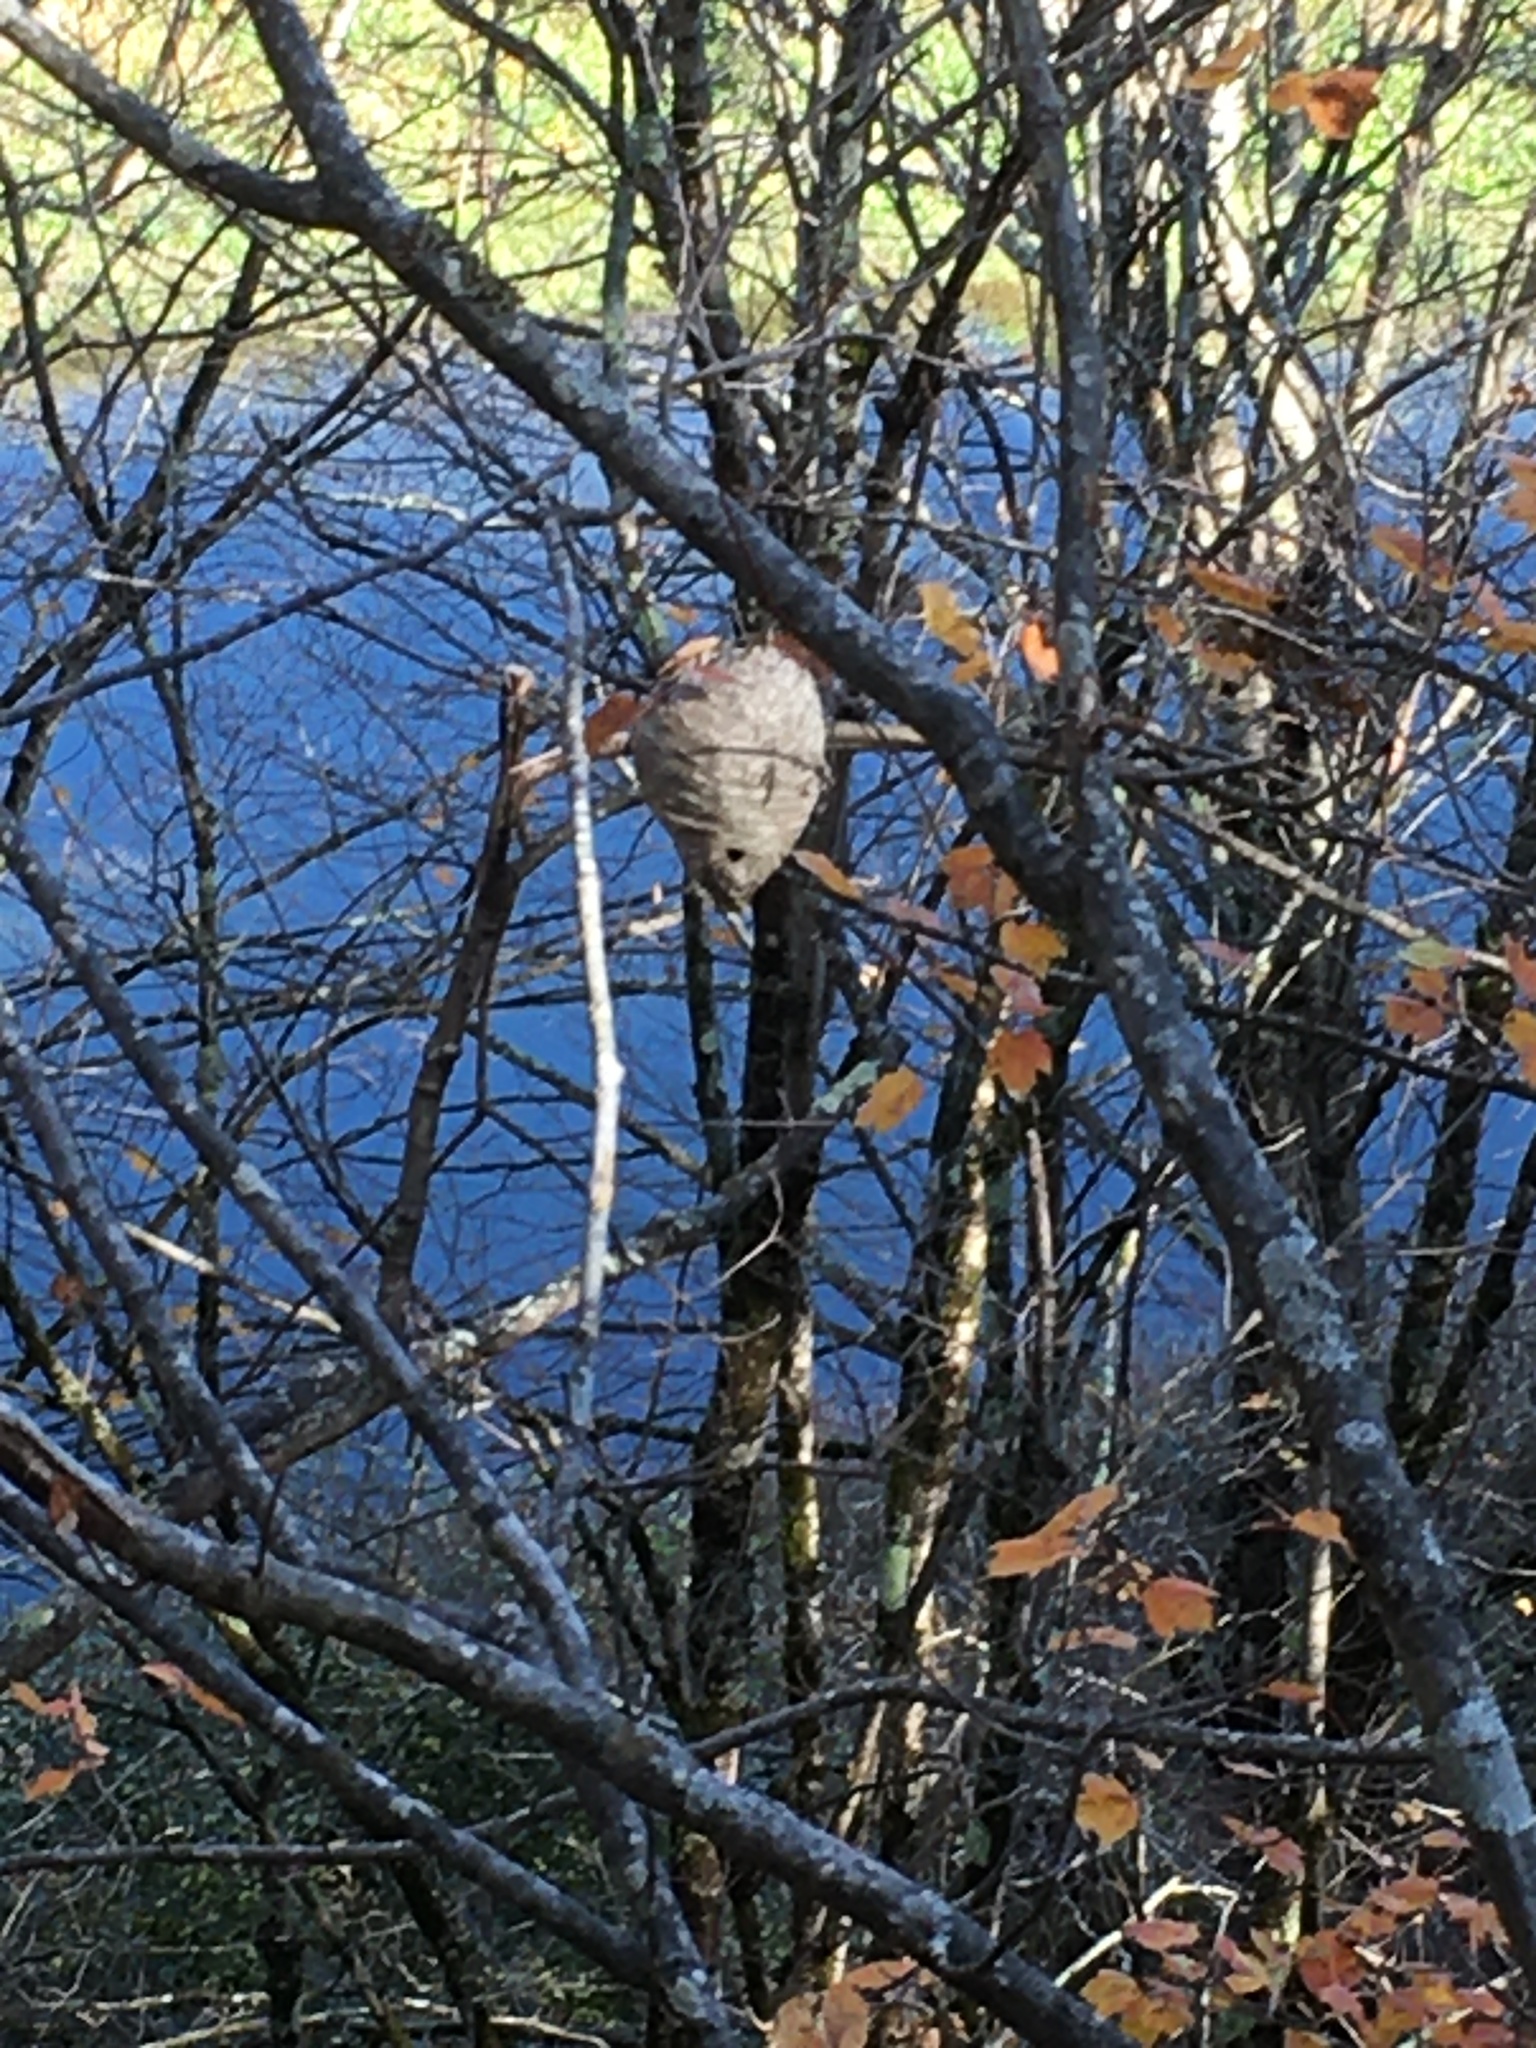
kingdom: Animalia
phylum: Arthropoda
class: Insecta
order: Hymenoptera
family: Vespidae
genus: Dolichovespula
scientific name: Dolichovespula
